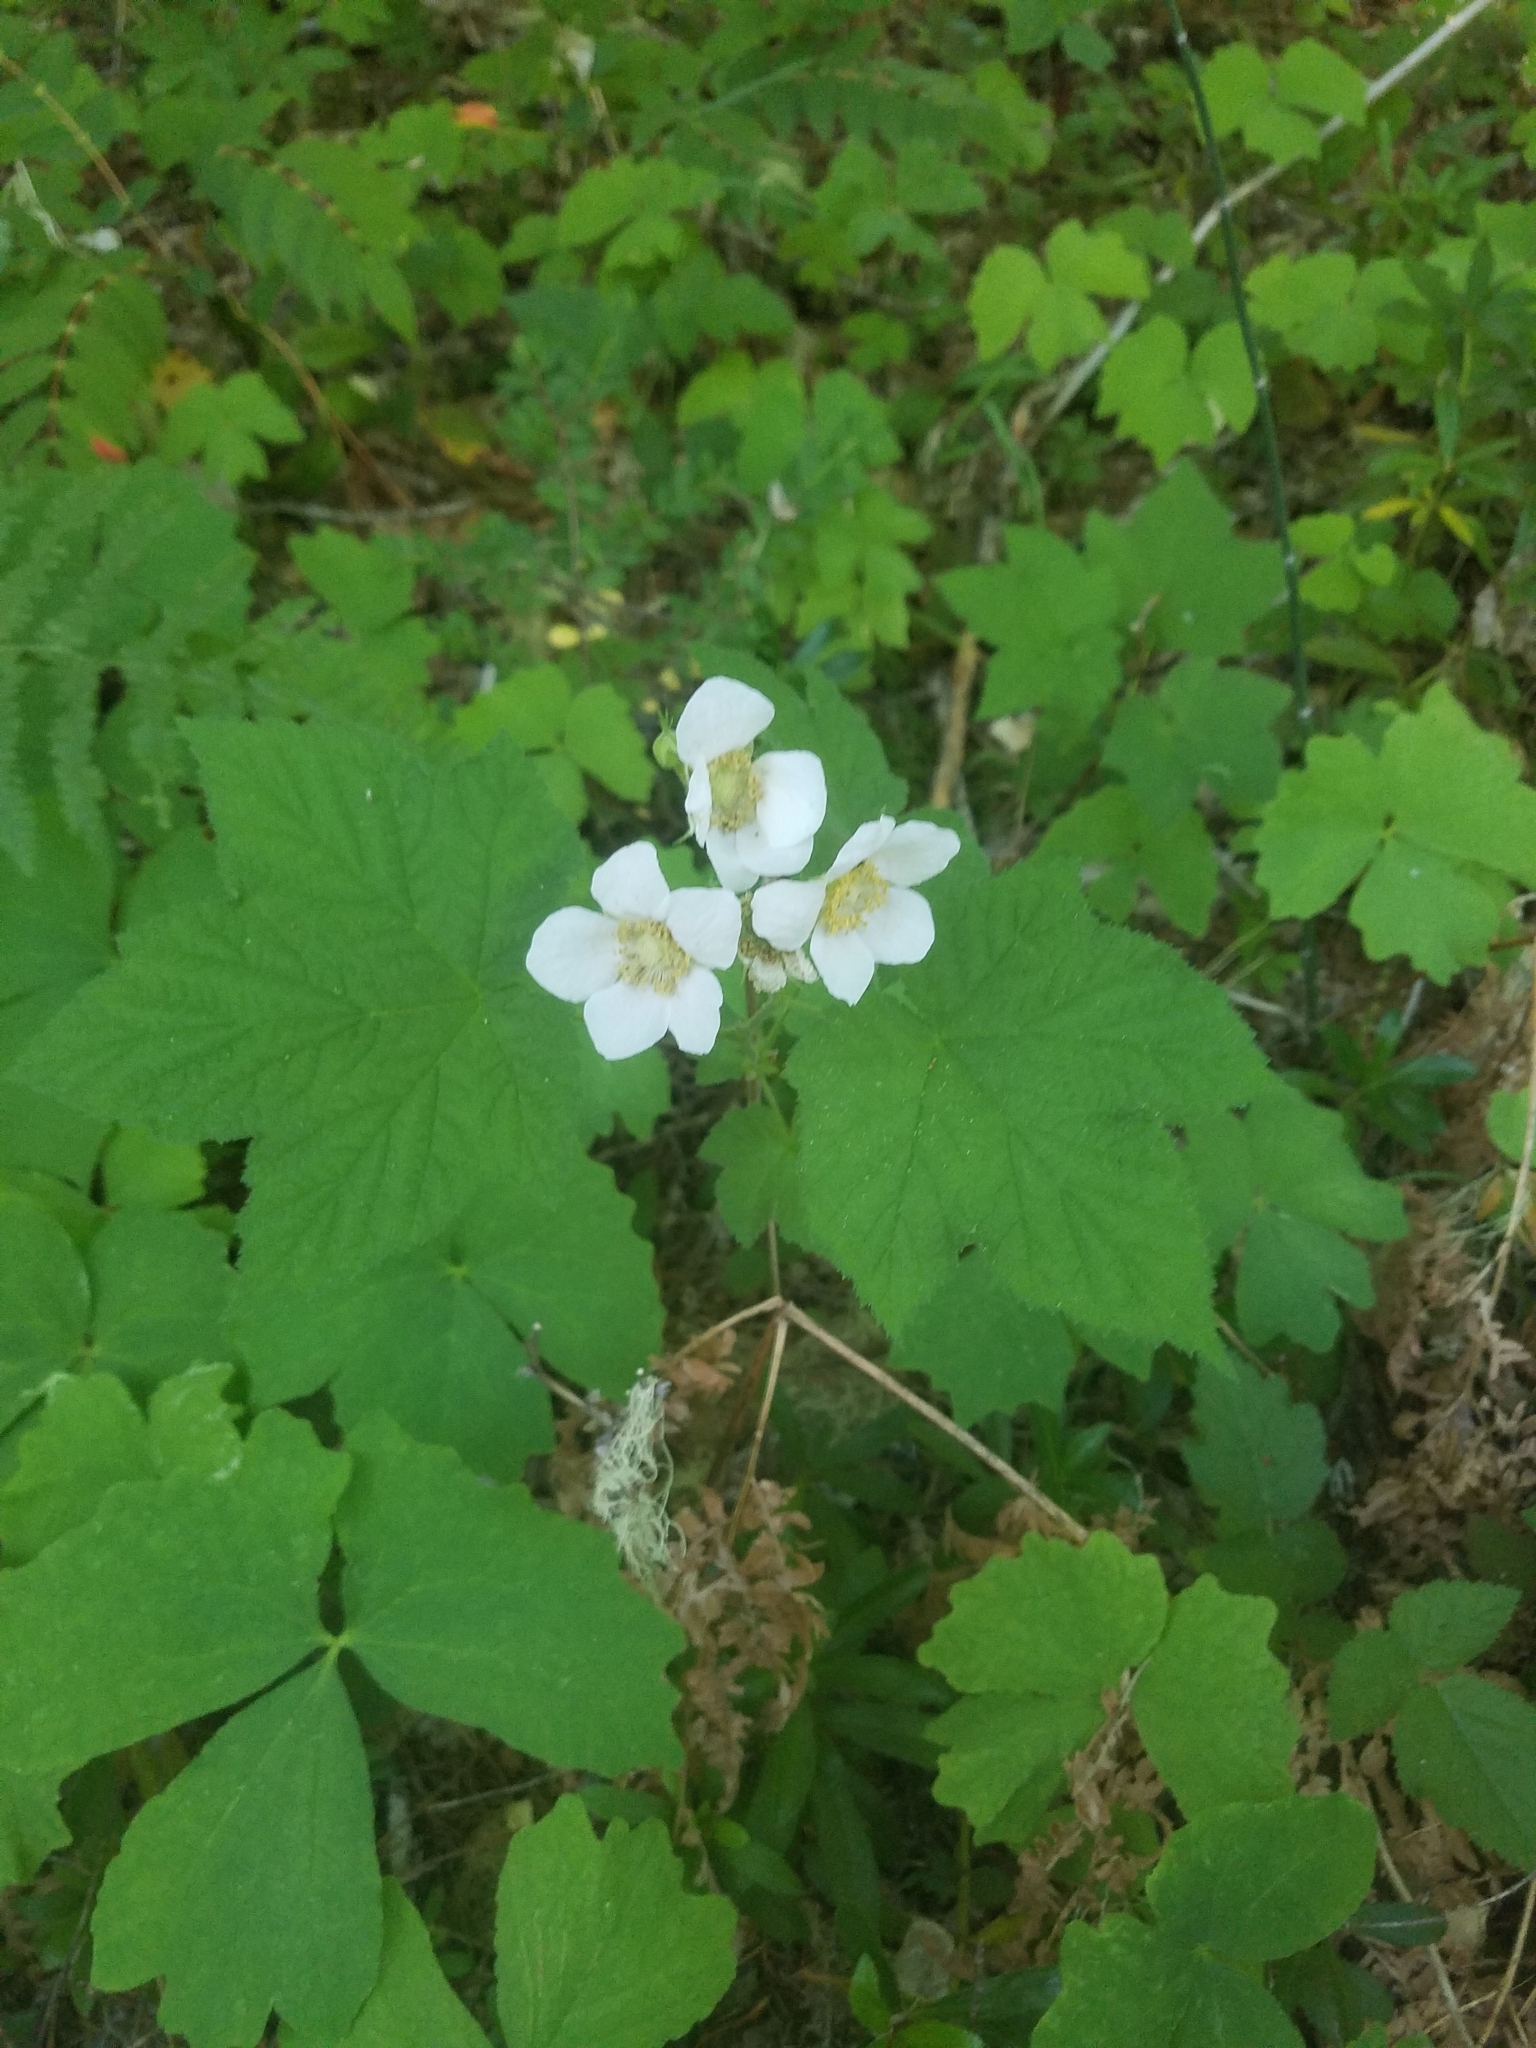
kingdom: Plantae
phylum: Tracheophyta
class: Magnoliopsida
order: Rosales
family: Rosaceae
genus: Rubus
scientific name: Rubus parviflorus
